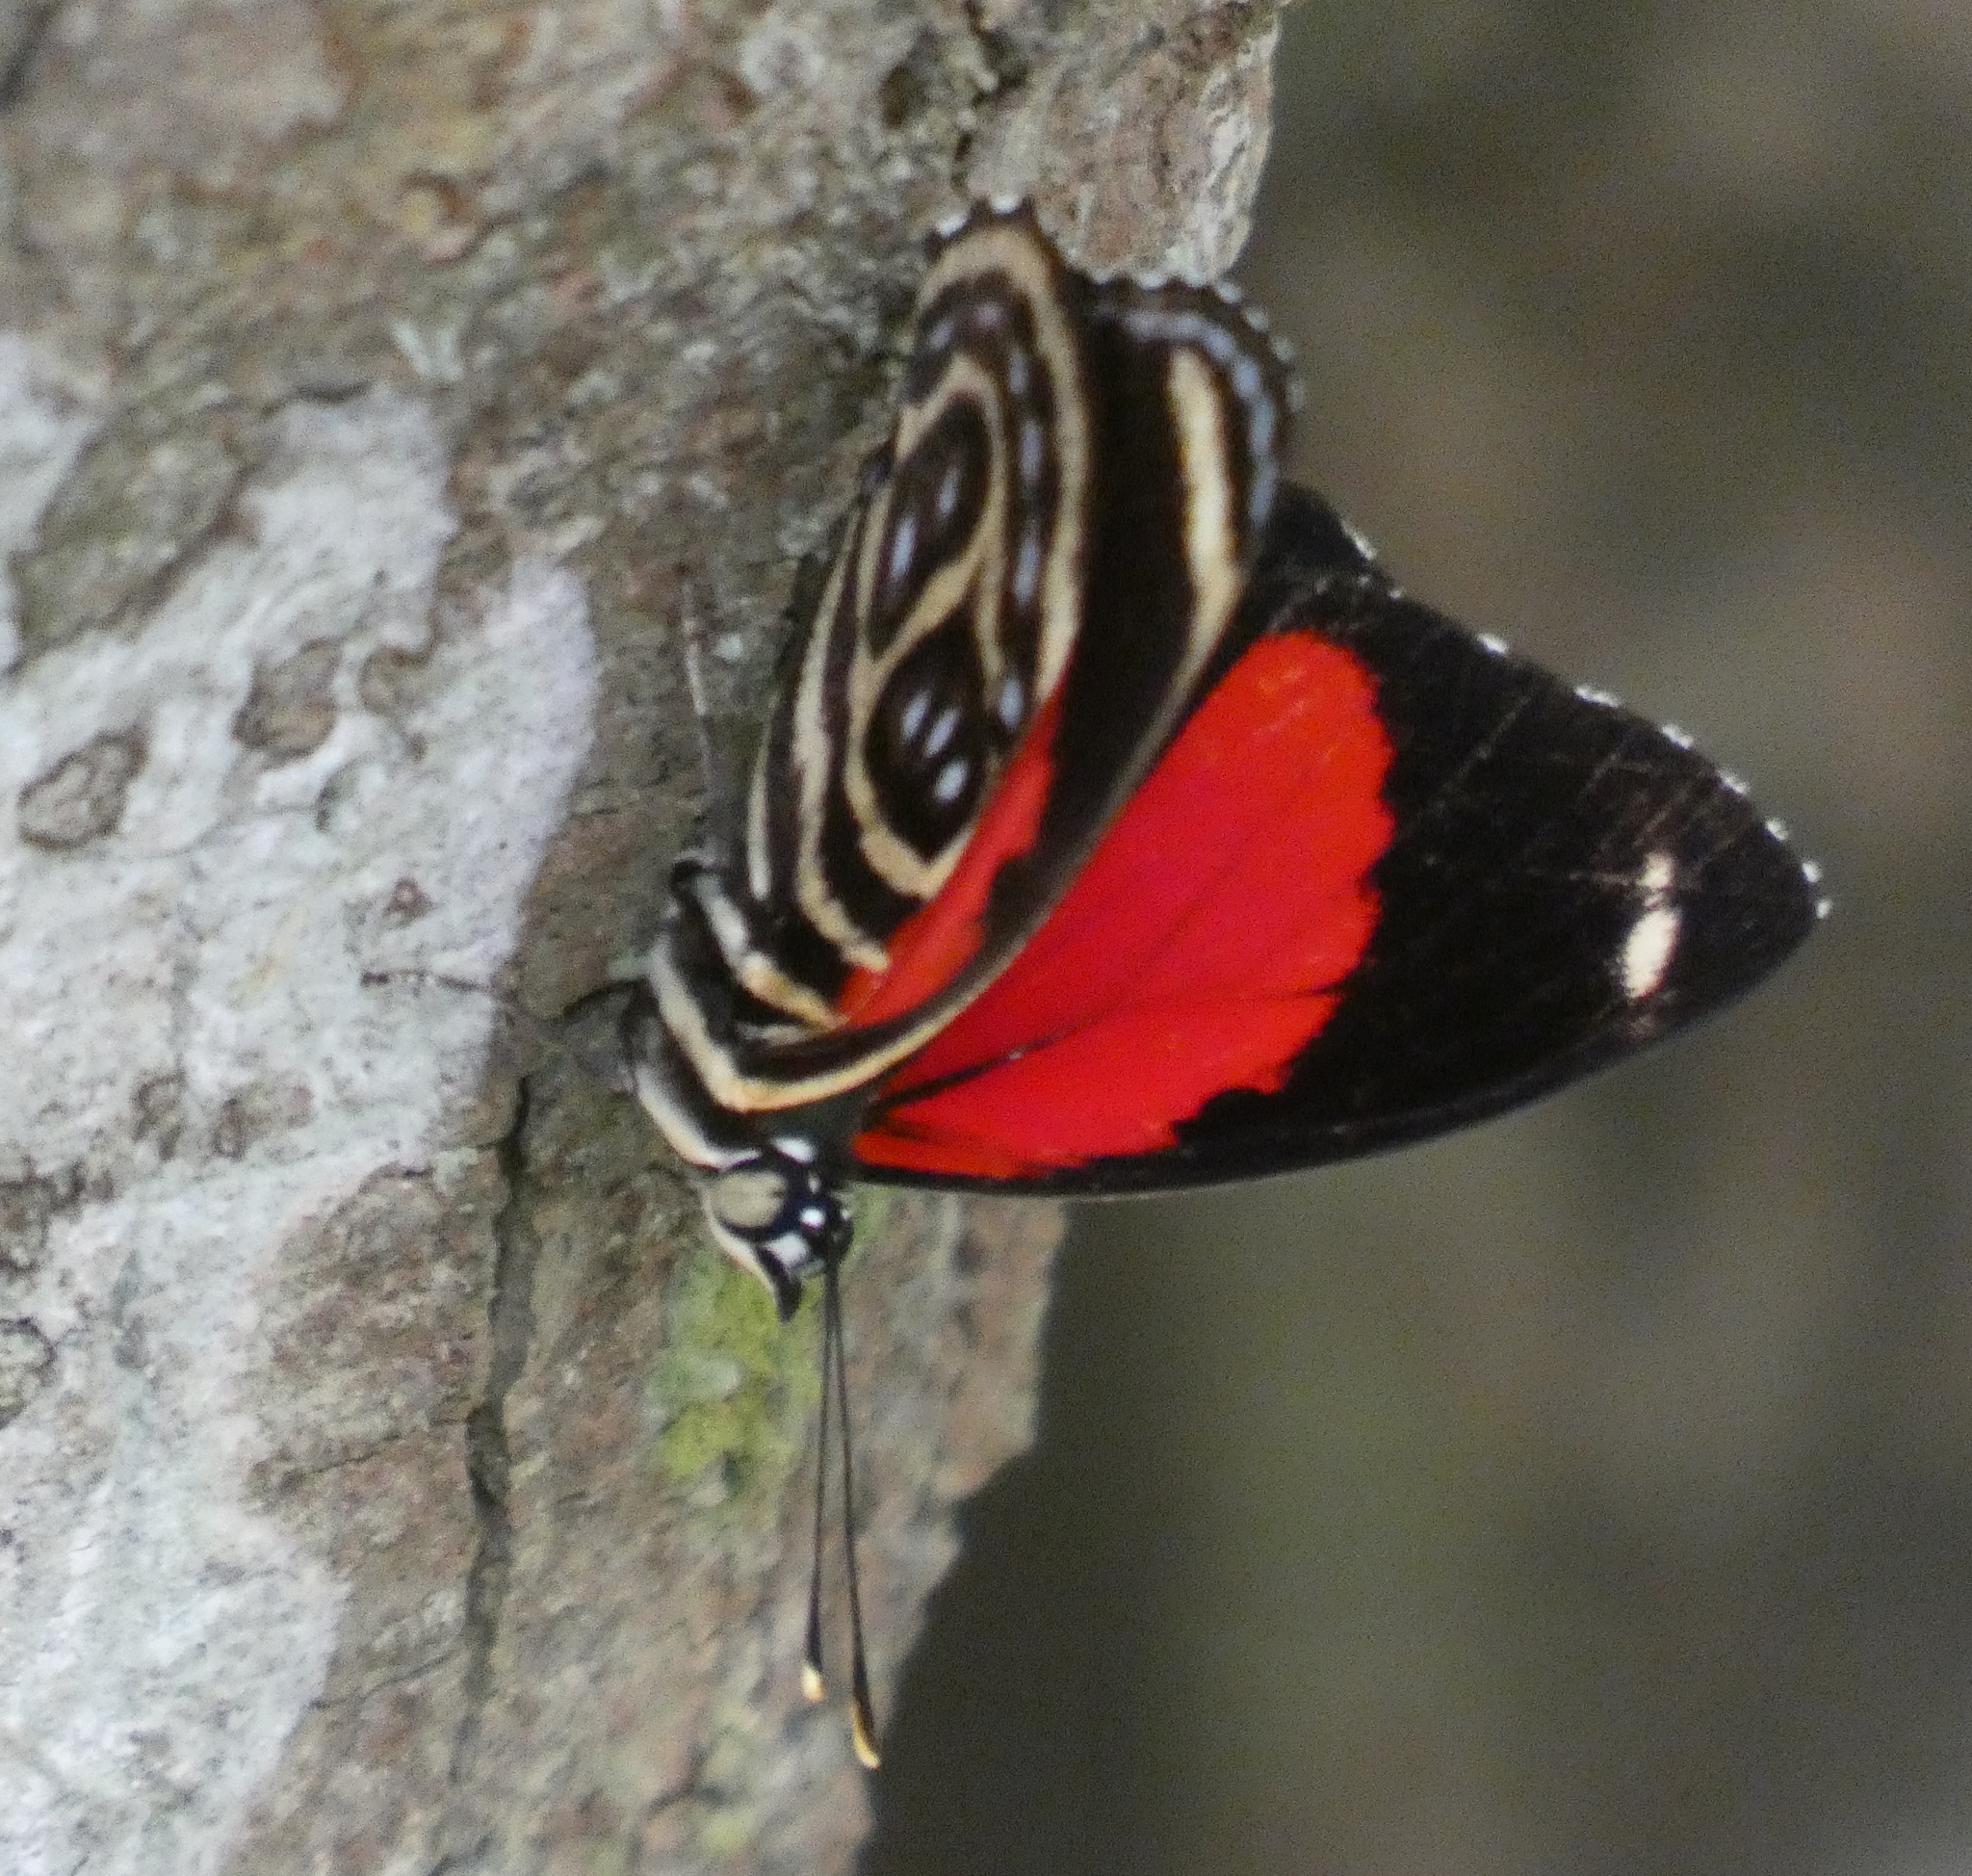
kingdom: Animalia
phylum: Arthropoda
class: Insecta
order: Lepidoptera
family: Nymphalidae
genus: Catagramma
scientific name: Catagramma pygas
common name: Godart's numberwing
